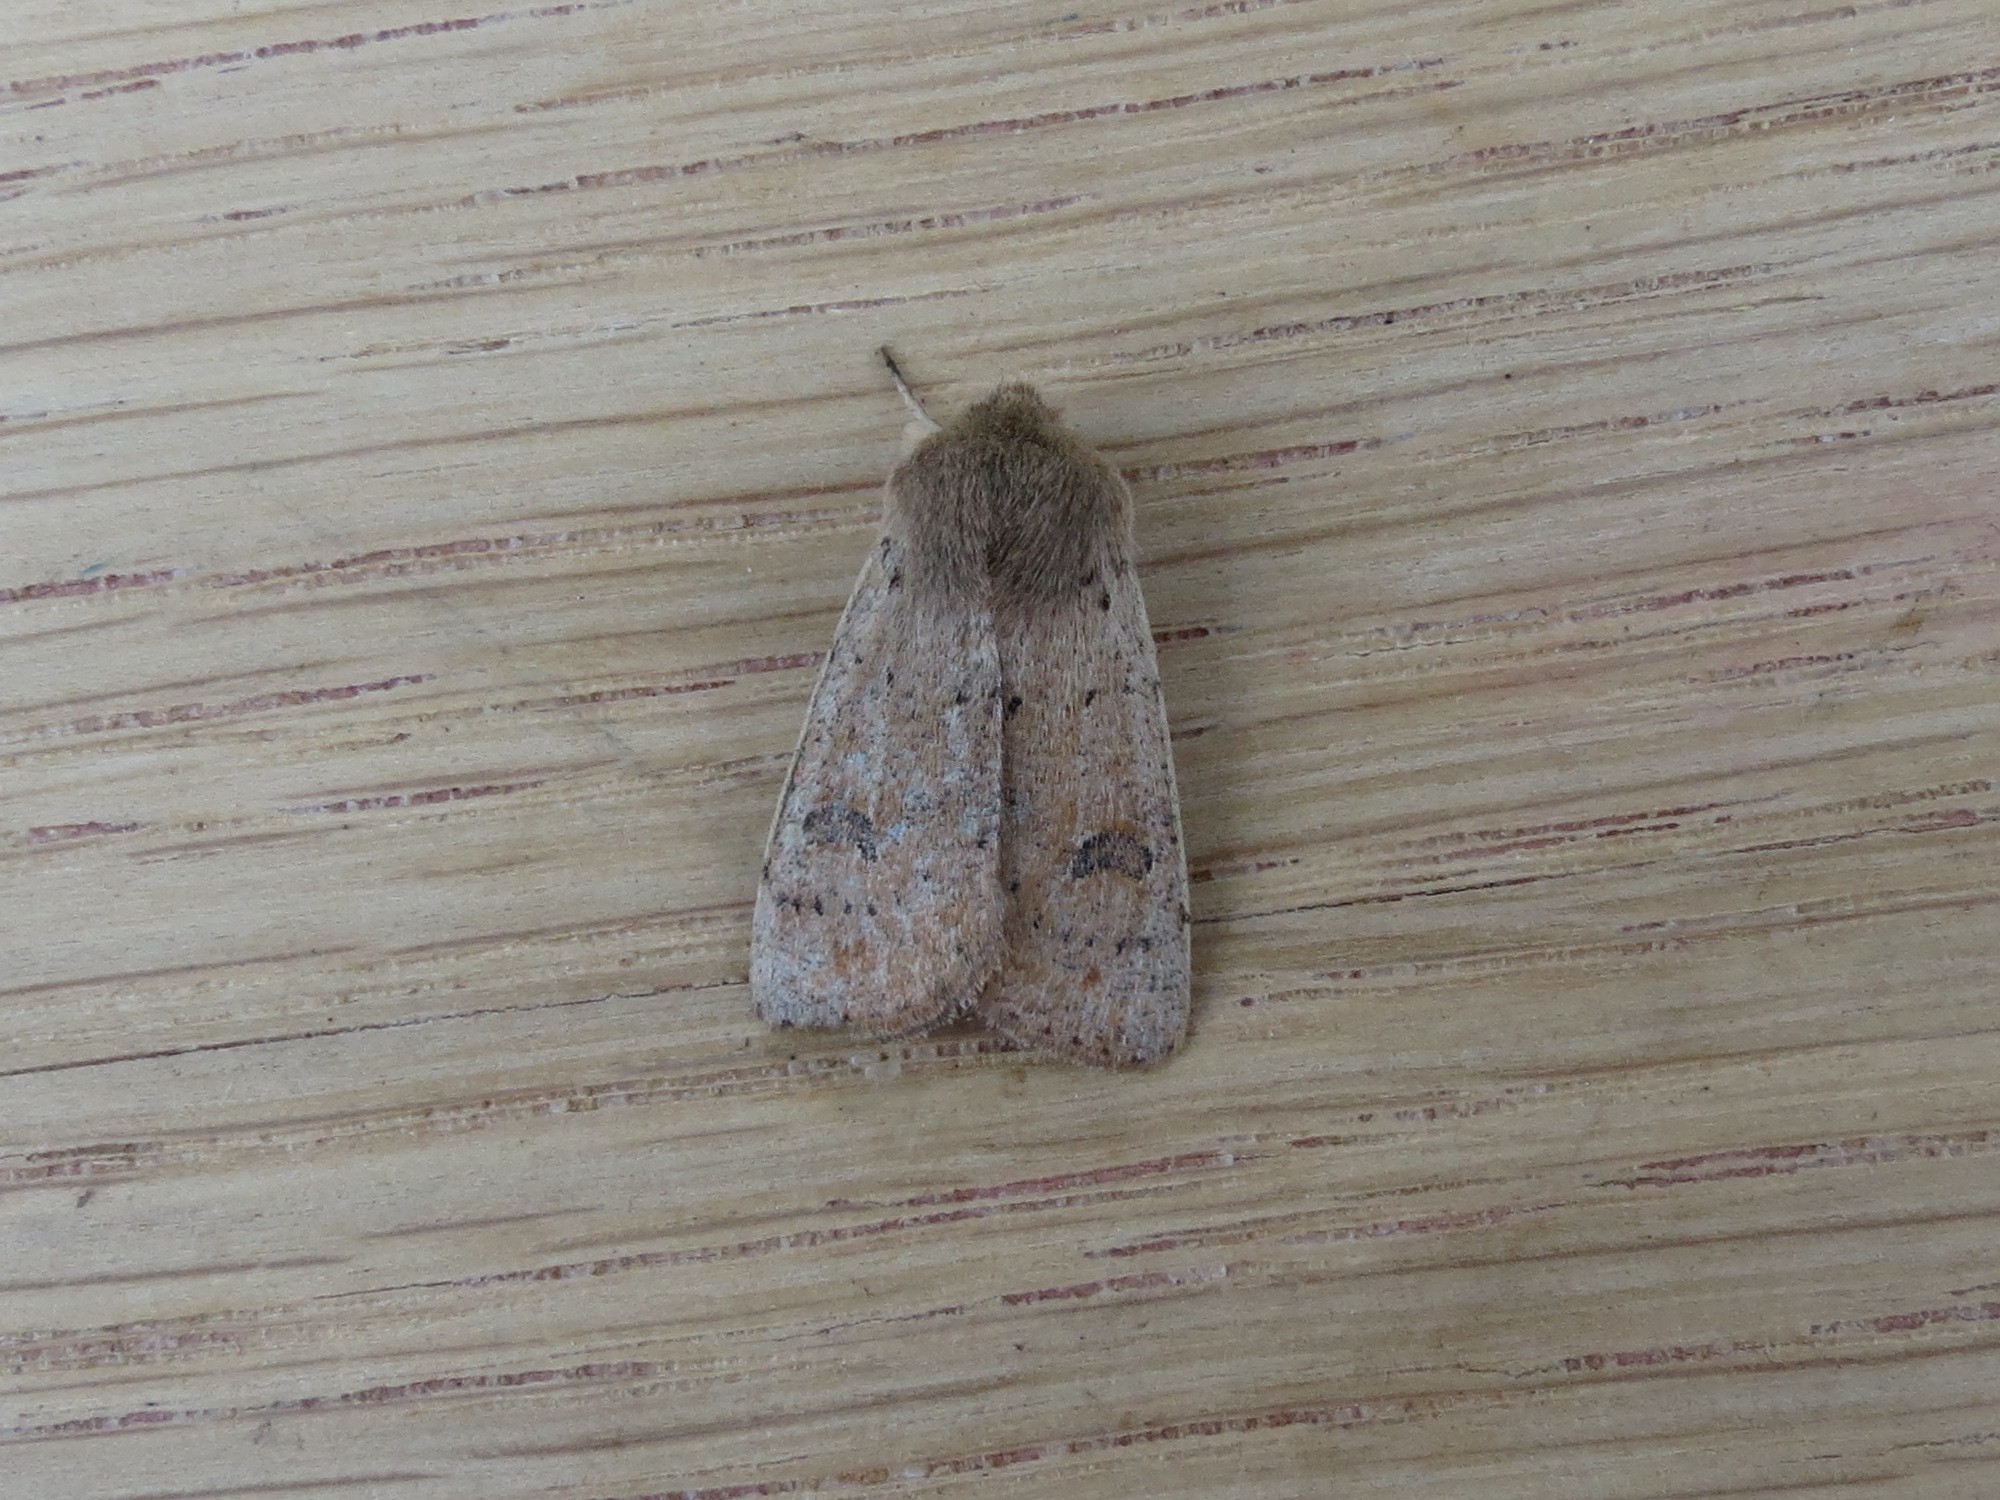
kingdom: Animalia
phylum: Arthropoda
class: Insecta
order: Lepidoptera
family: Noctuidae
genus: Orthosia
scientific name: Orthosia cruda
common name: Small quaker
